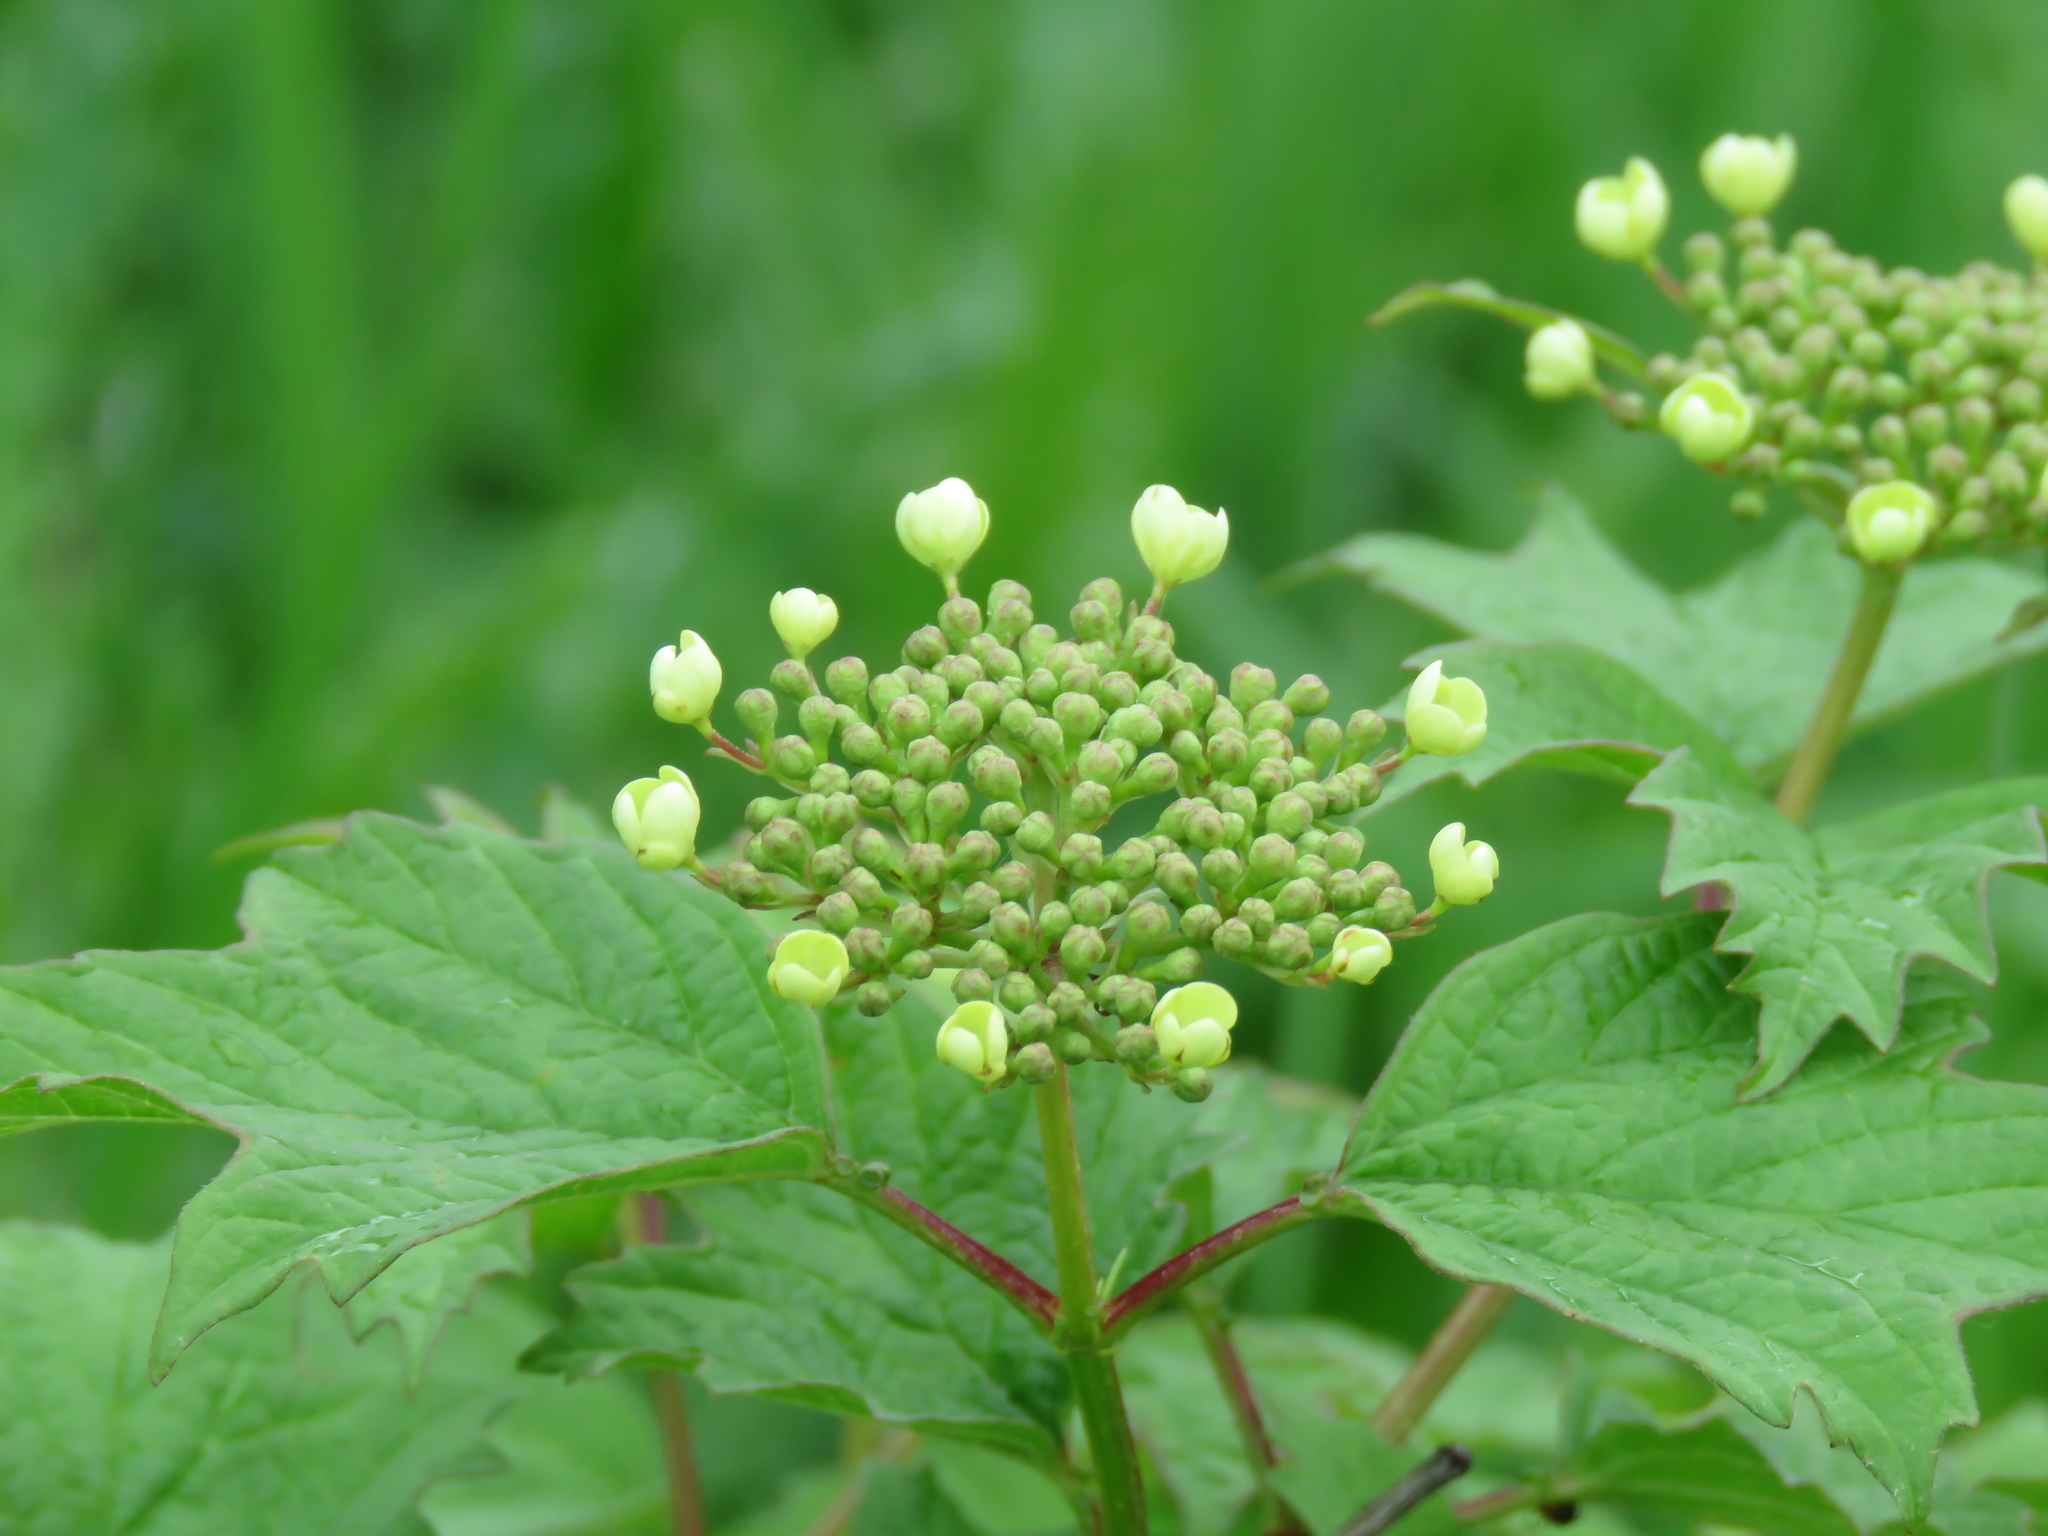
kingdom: Plantae
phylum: Tracheophyta
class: Magnoliopsida
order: Dipsacales
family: Viburnaceae
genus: Viburnum
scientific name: Viburnum opulus
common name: Guelder-rose
